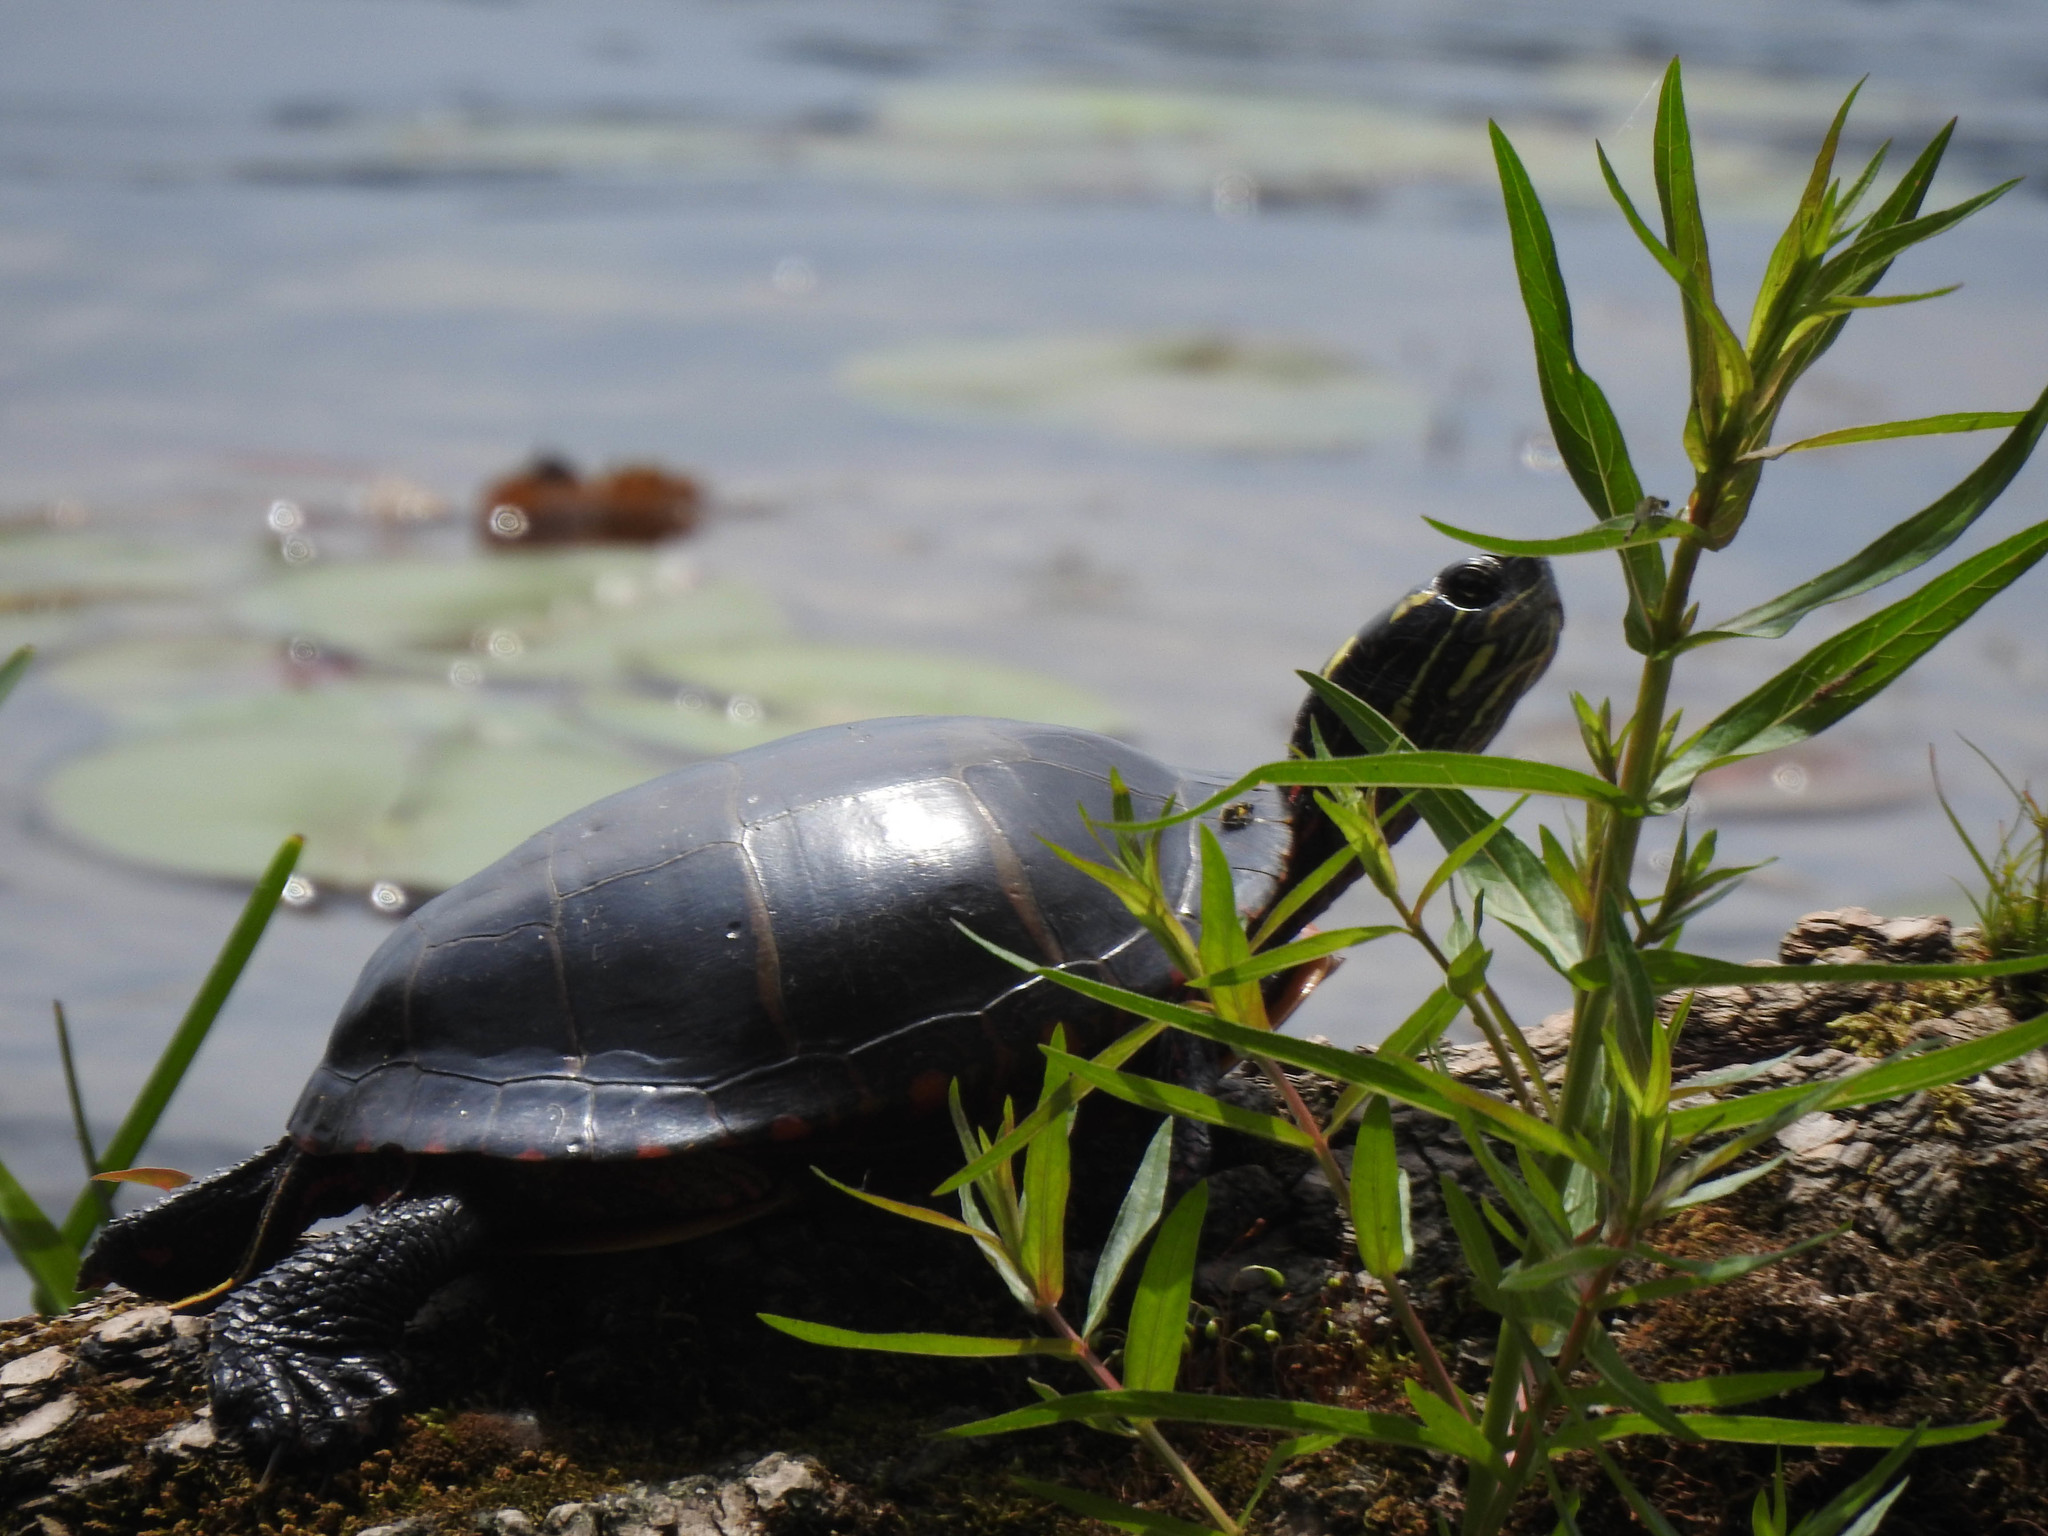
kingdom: Animalia
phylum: Chordata
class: Testudines
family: Emydidae
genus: Chrysemys
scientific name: Chrysemys picta
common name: Painted turtle
